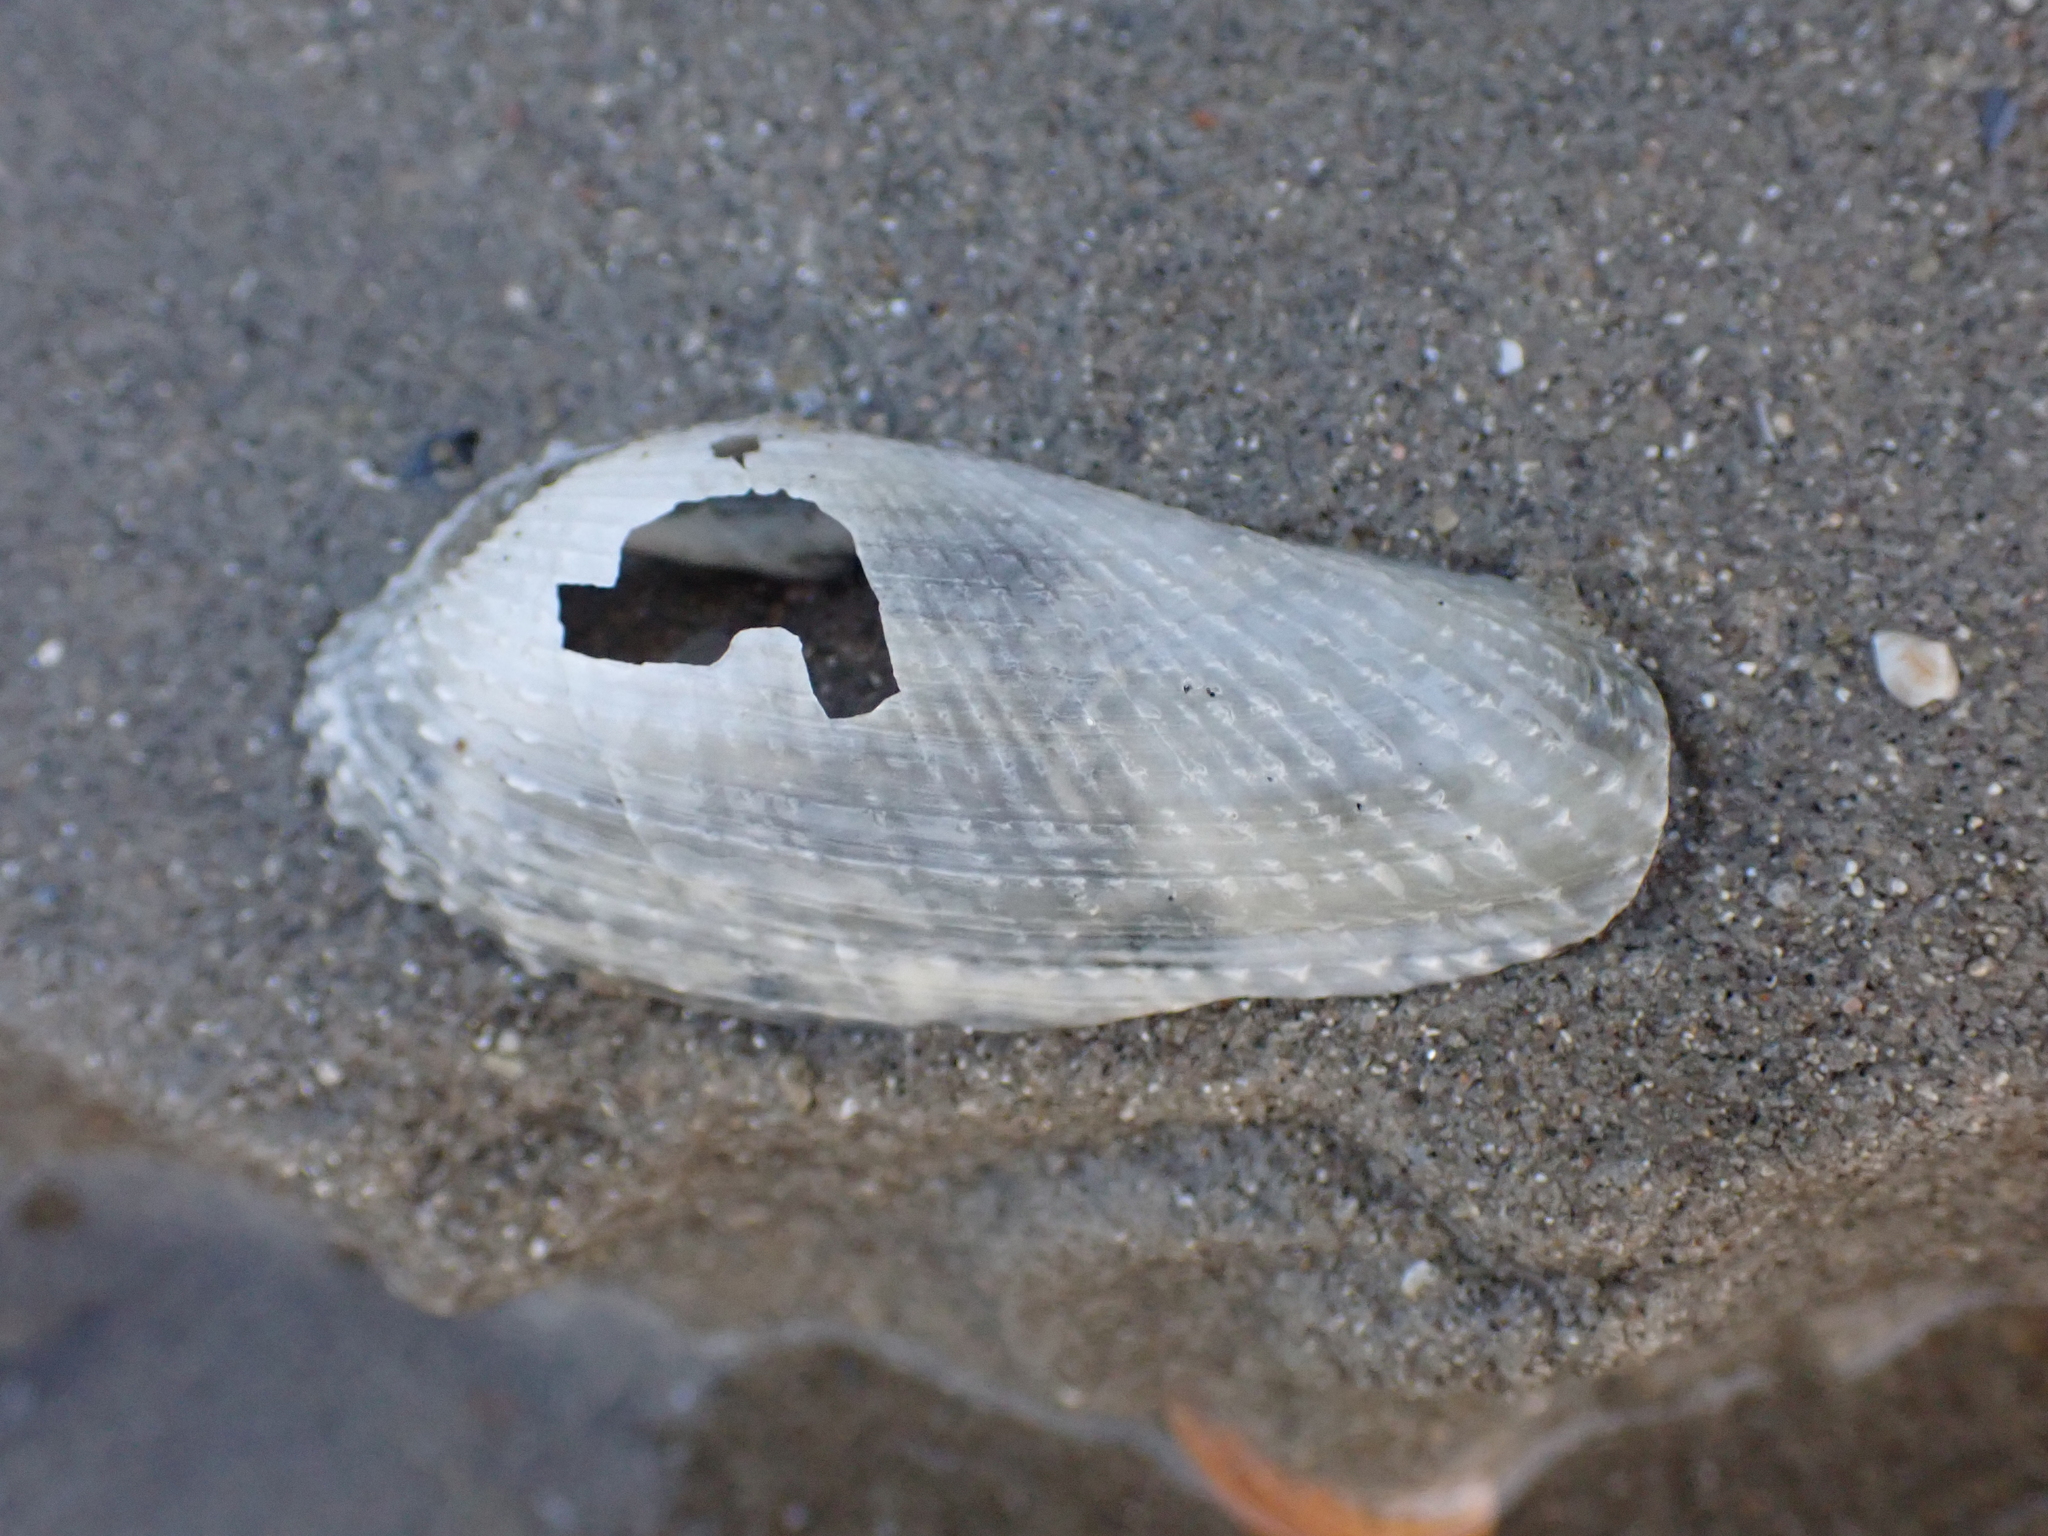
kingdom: Animalia
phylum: Mollusca
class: Bivalvia
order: Myida
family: Pholadidae
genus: Barnea
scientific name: Barnea candida
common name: White piddock
